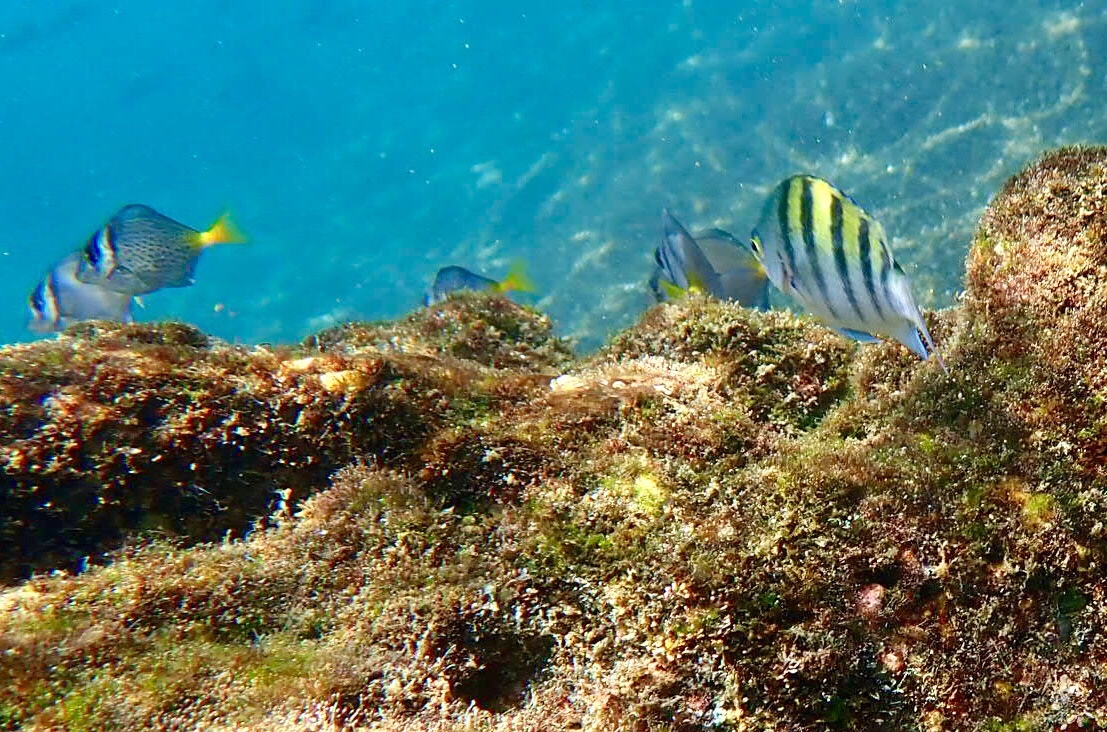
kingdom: Animalia
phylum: Chordata
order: Perciformes
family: Pomacentridae
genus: Abudefduf
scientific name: Abudefduf troschelii
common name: Panamic sergeant major
